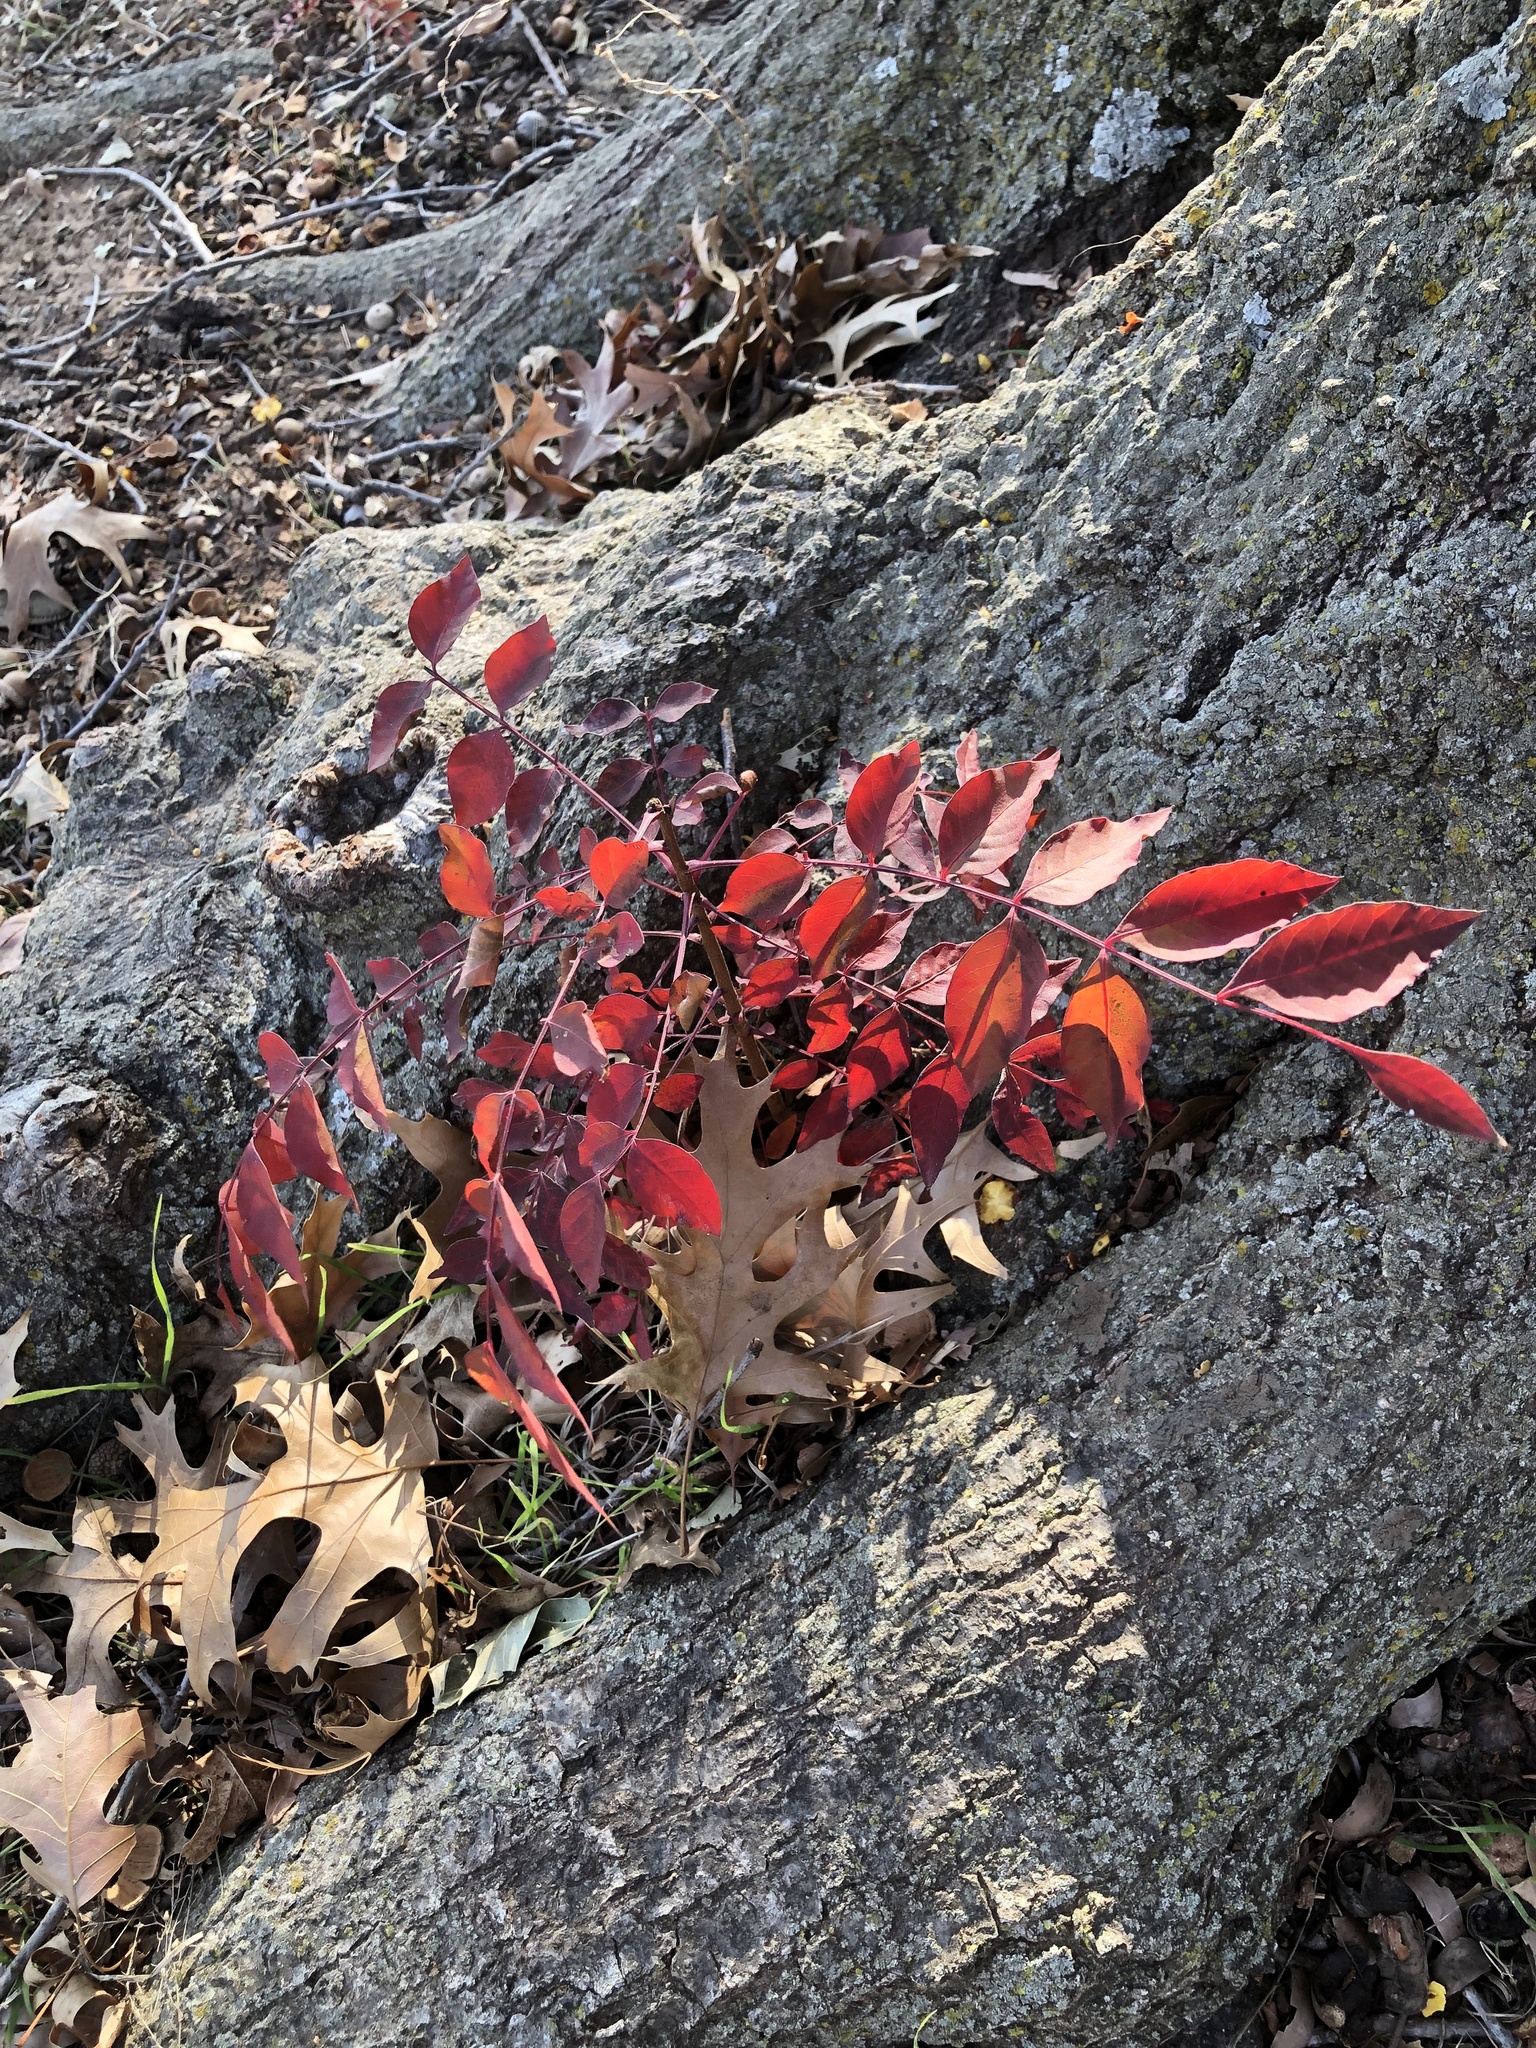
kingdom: Plantae
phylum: Tracheophyta
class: Magnoliopsida
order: Sapindales
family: Anacardiaceae
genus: Pistacia
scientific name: Pistacia chinensis
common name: Chinese pistache
